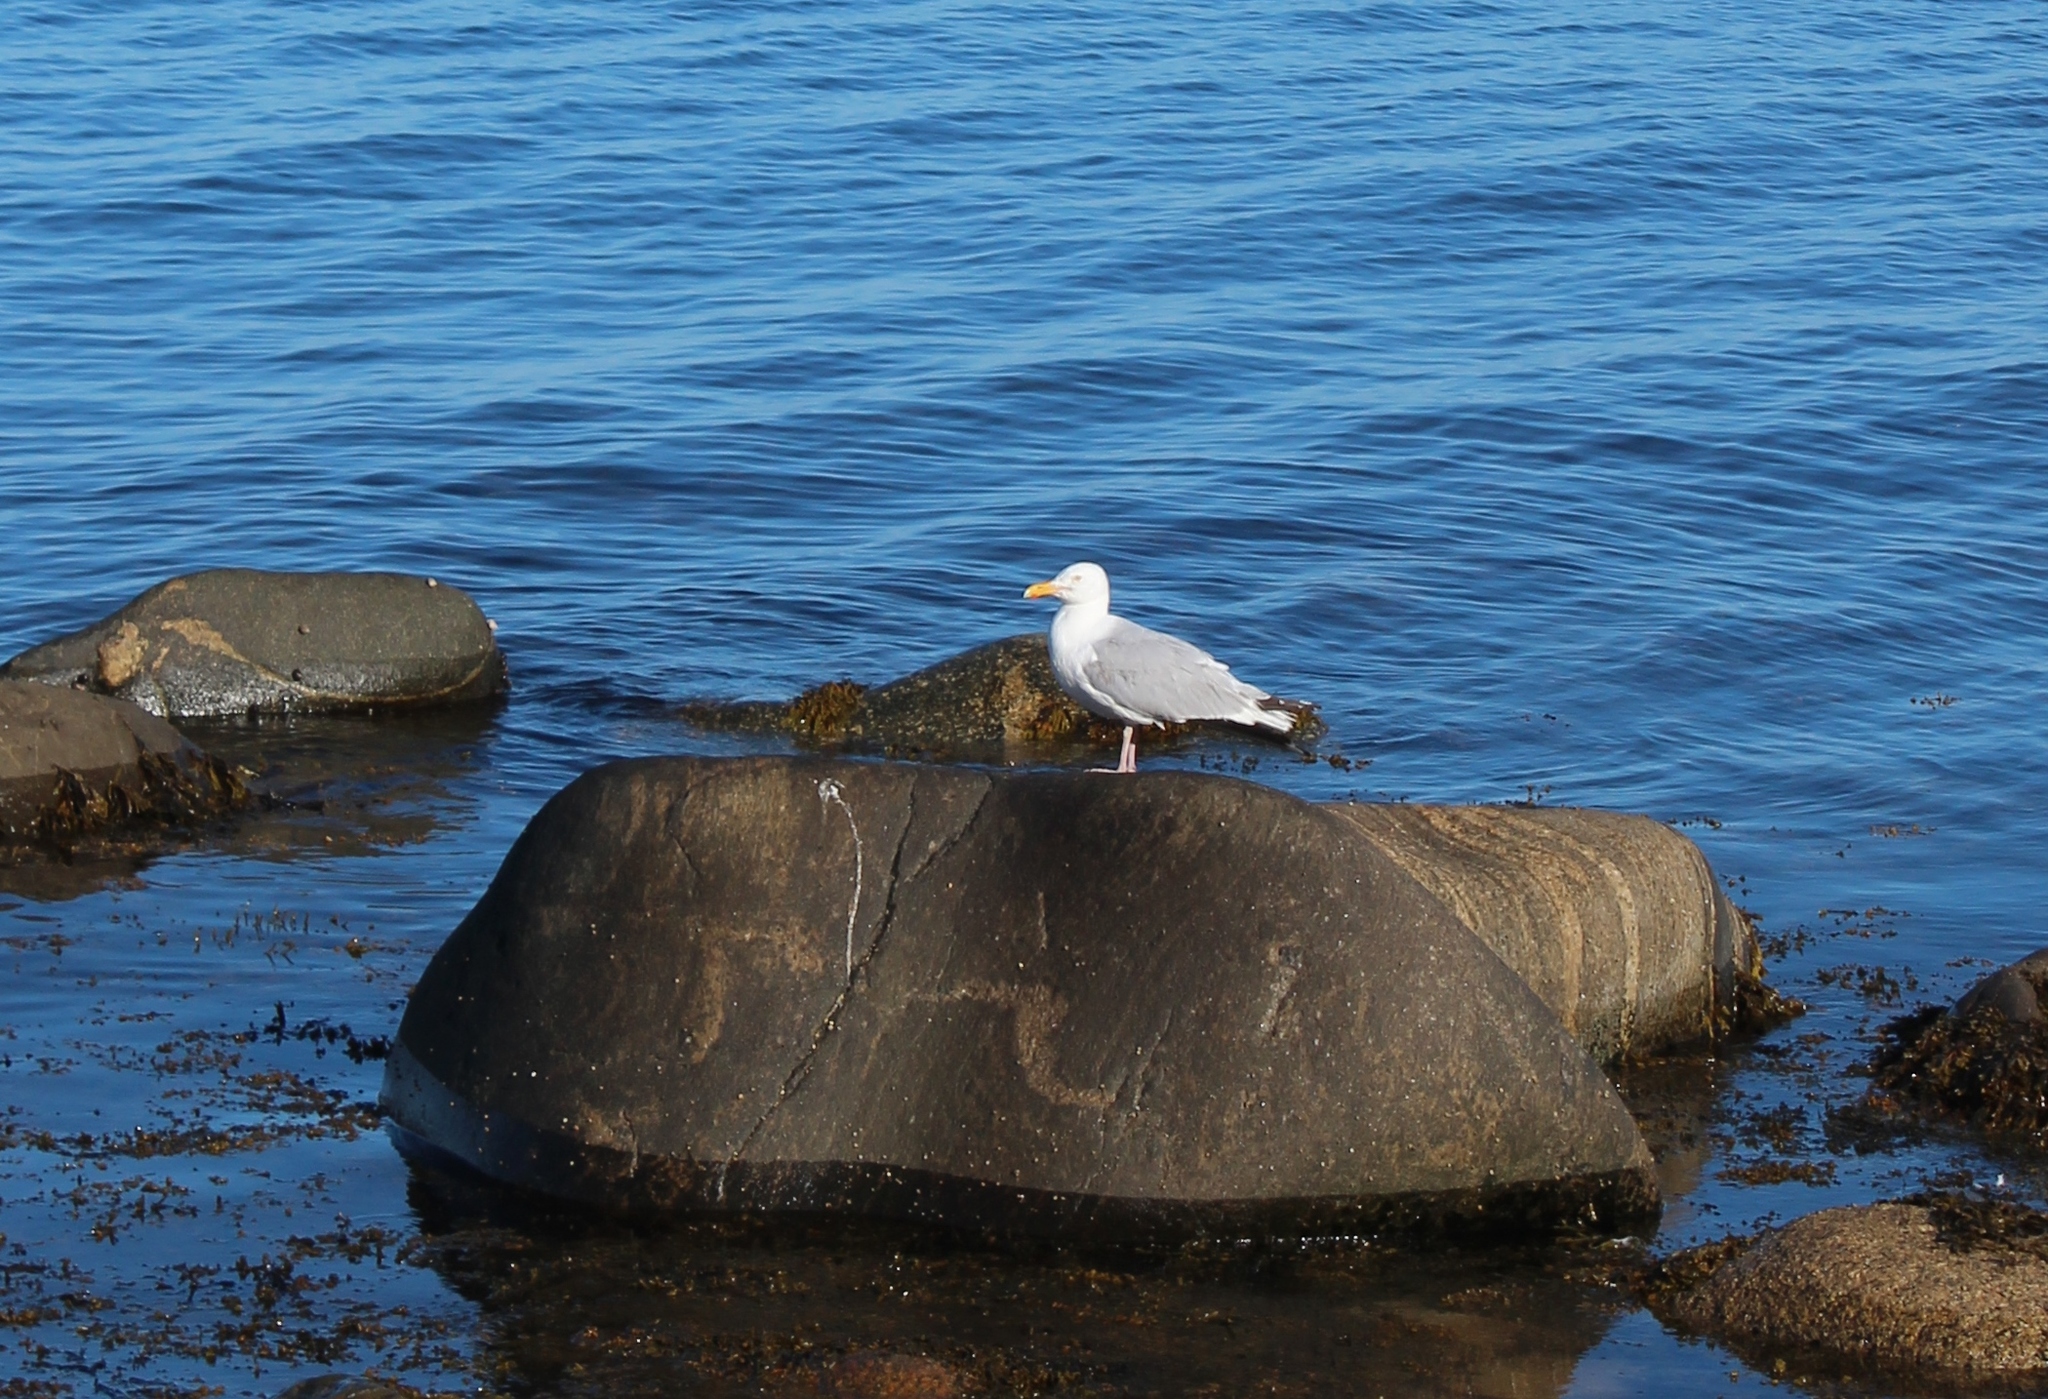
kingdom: Animalia
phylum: Chordata
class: Aves
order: Charadriiformes
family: Laridae
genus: Larus
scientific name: Larus argentatus
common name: Herring gull
